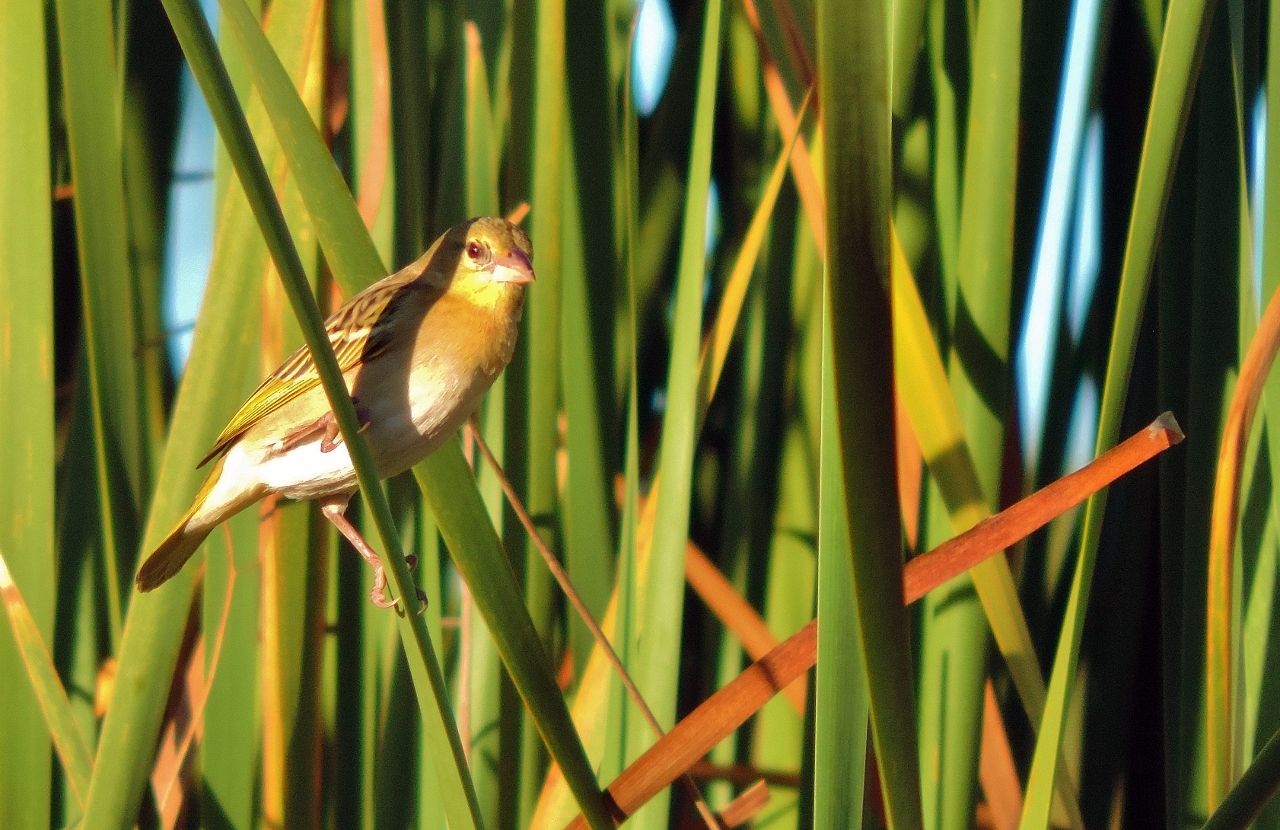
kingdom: Animalia
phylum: Chordata
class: Aves
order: Passeriformes
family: Ploceidae
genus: Ploceus
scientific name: Ploceus velatus
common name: Southern masked weaver
